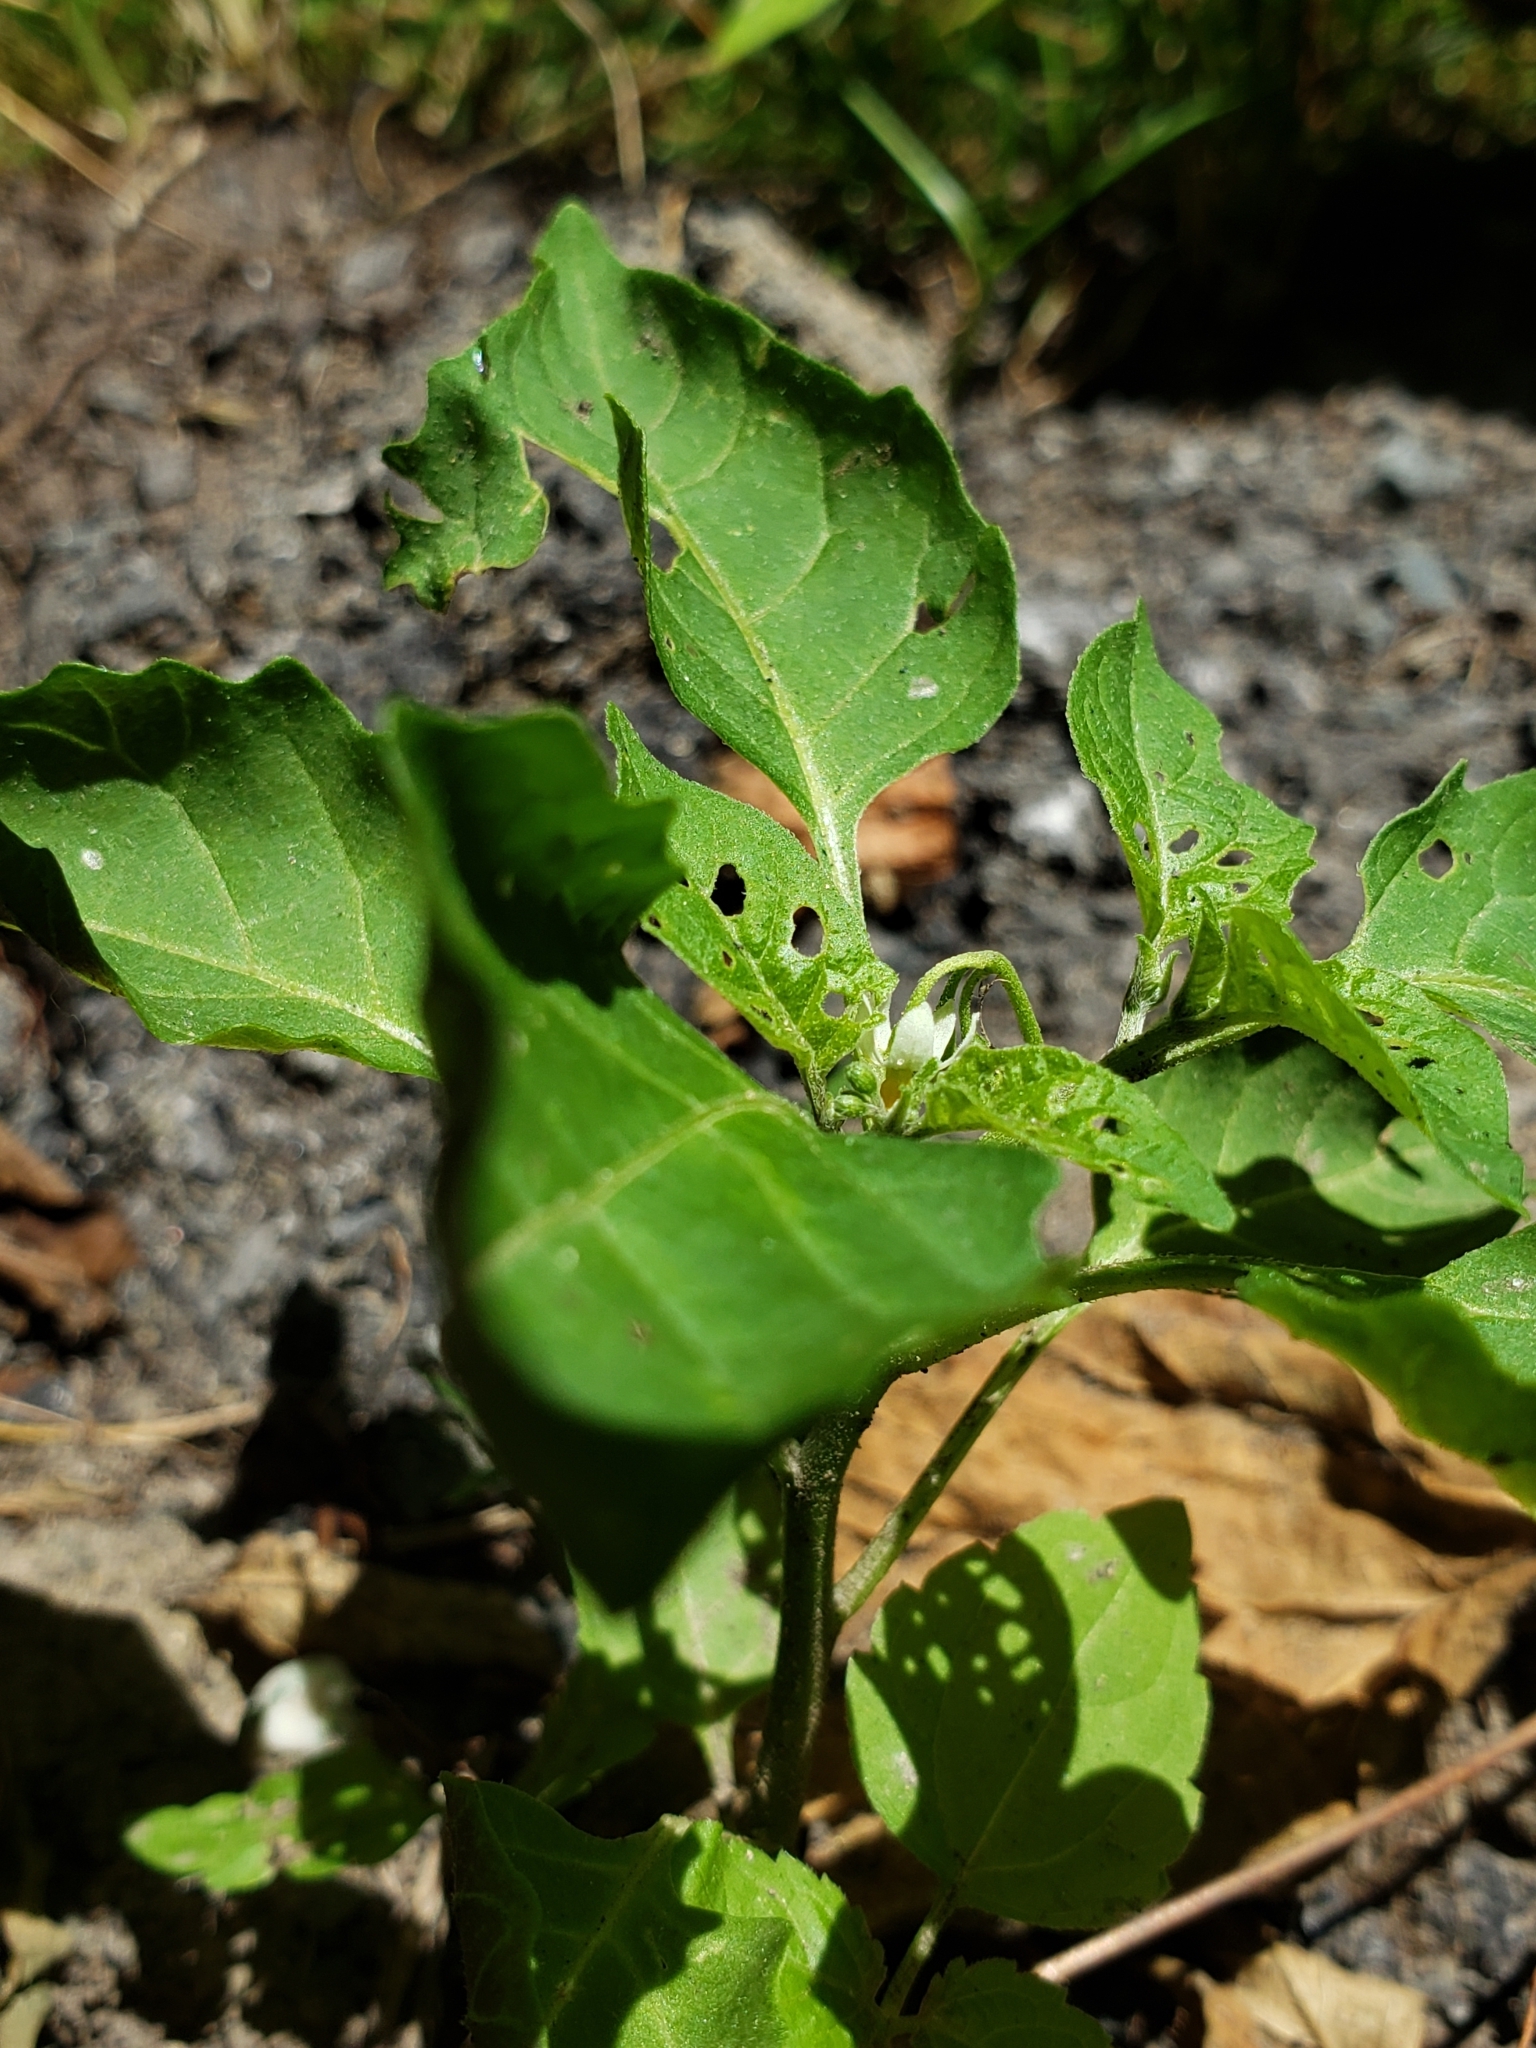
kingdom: Plantae
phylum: Tracheophyta
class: Magnoliopsida
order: Solanales
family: Solanaceae
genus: Solanum
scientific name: Solanum emulans
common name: Eastern black nightshade
